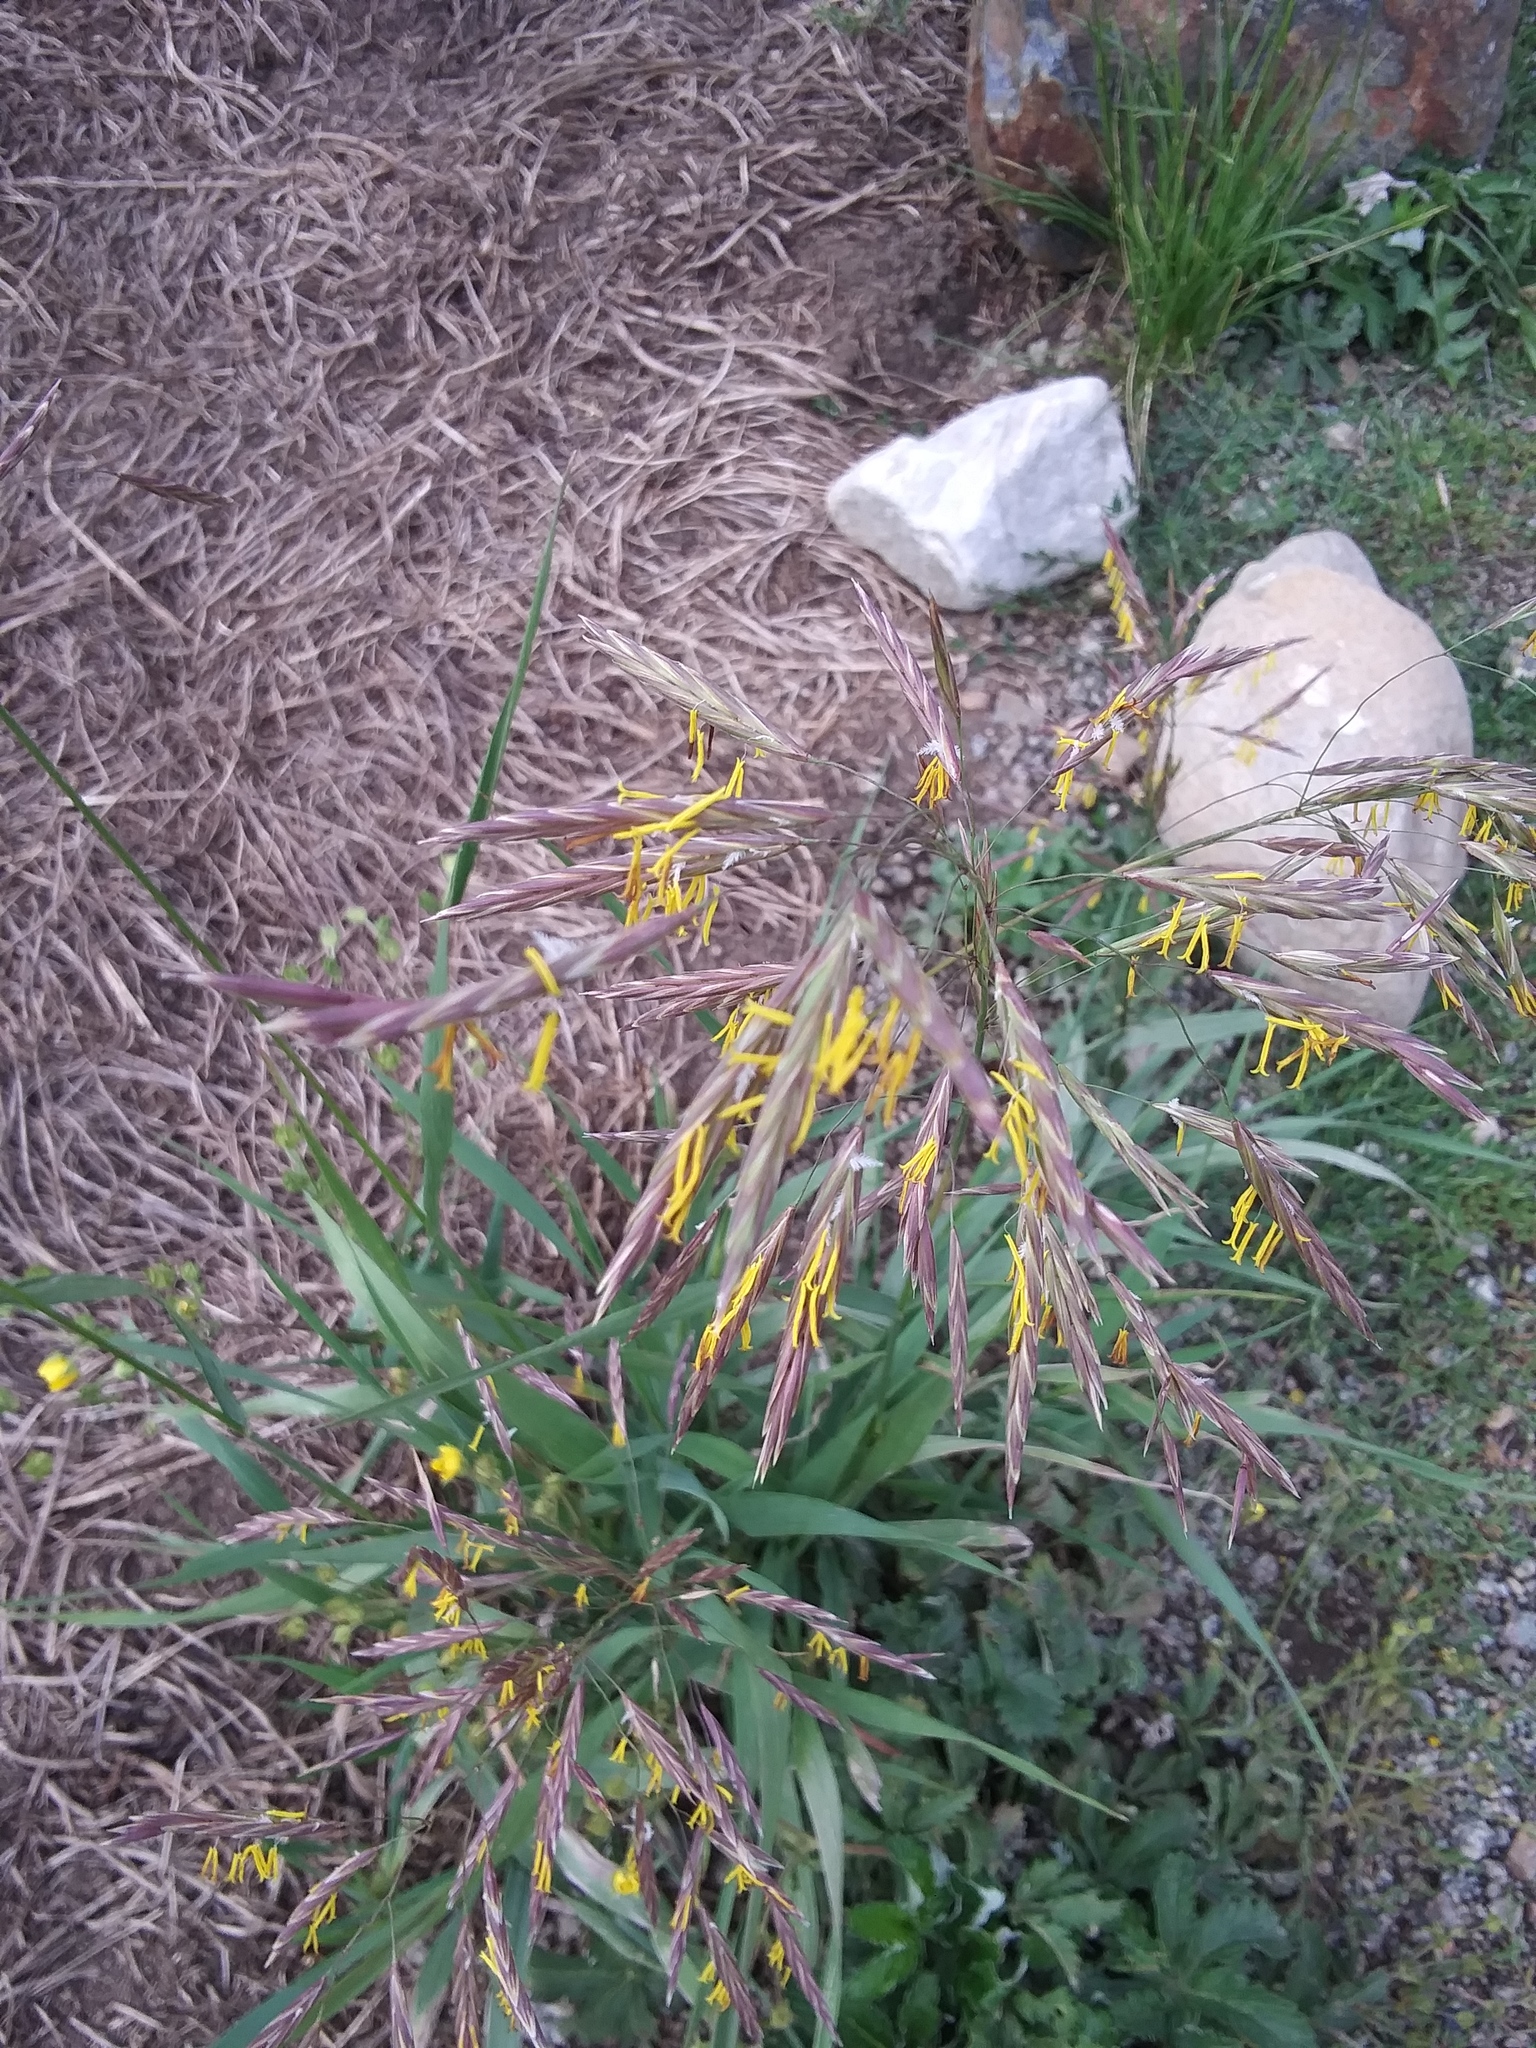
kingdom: Plantae
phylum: Tracheophyta
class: Liliopsida
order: Poales
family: Poaceae
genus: Bromus
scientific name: Bromus inermis
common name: Smooth brome
